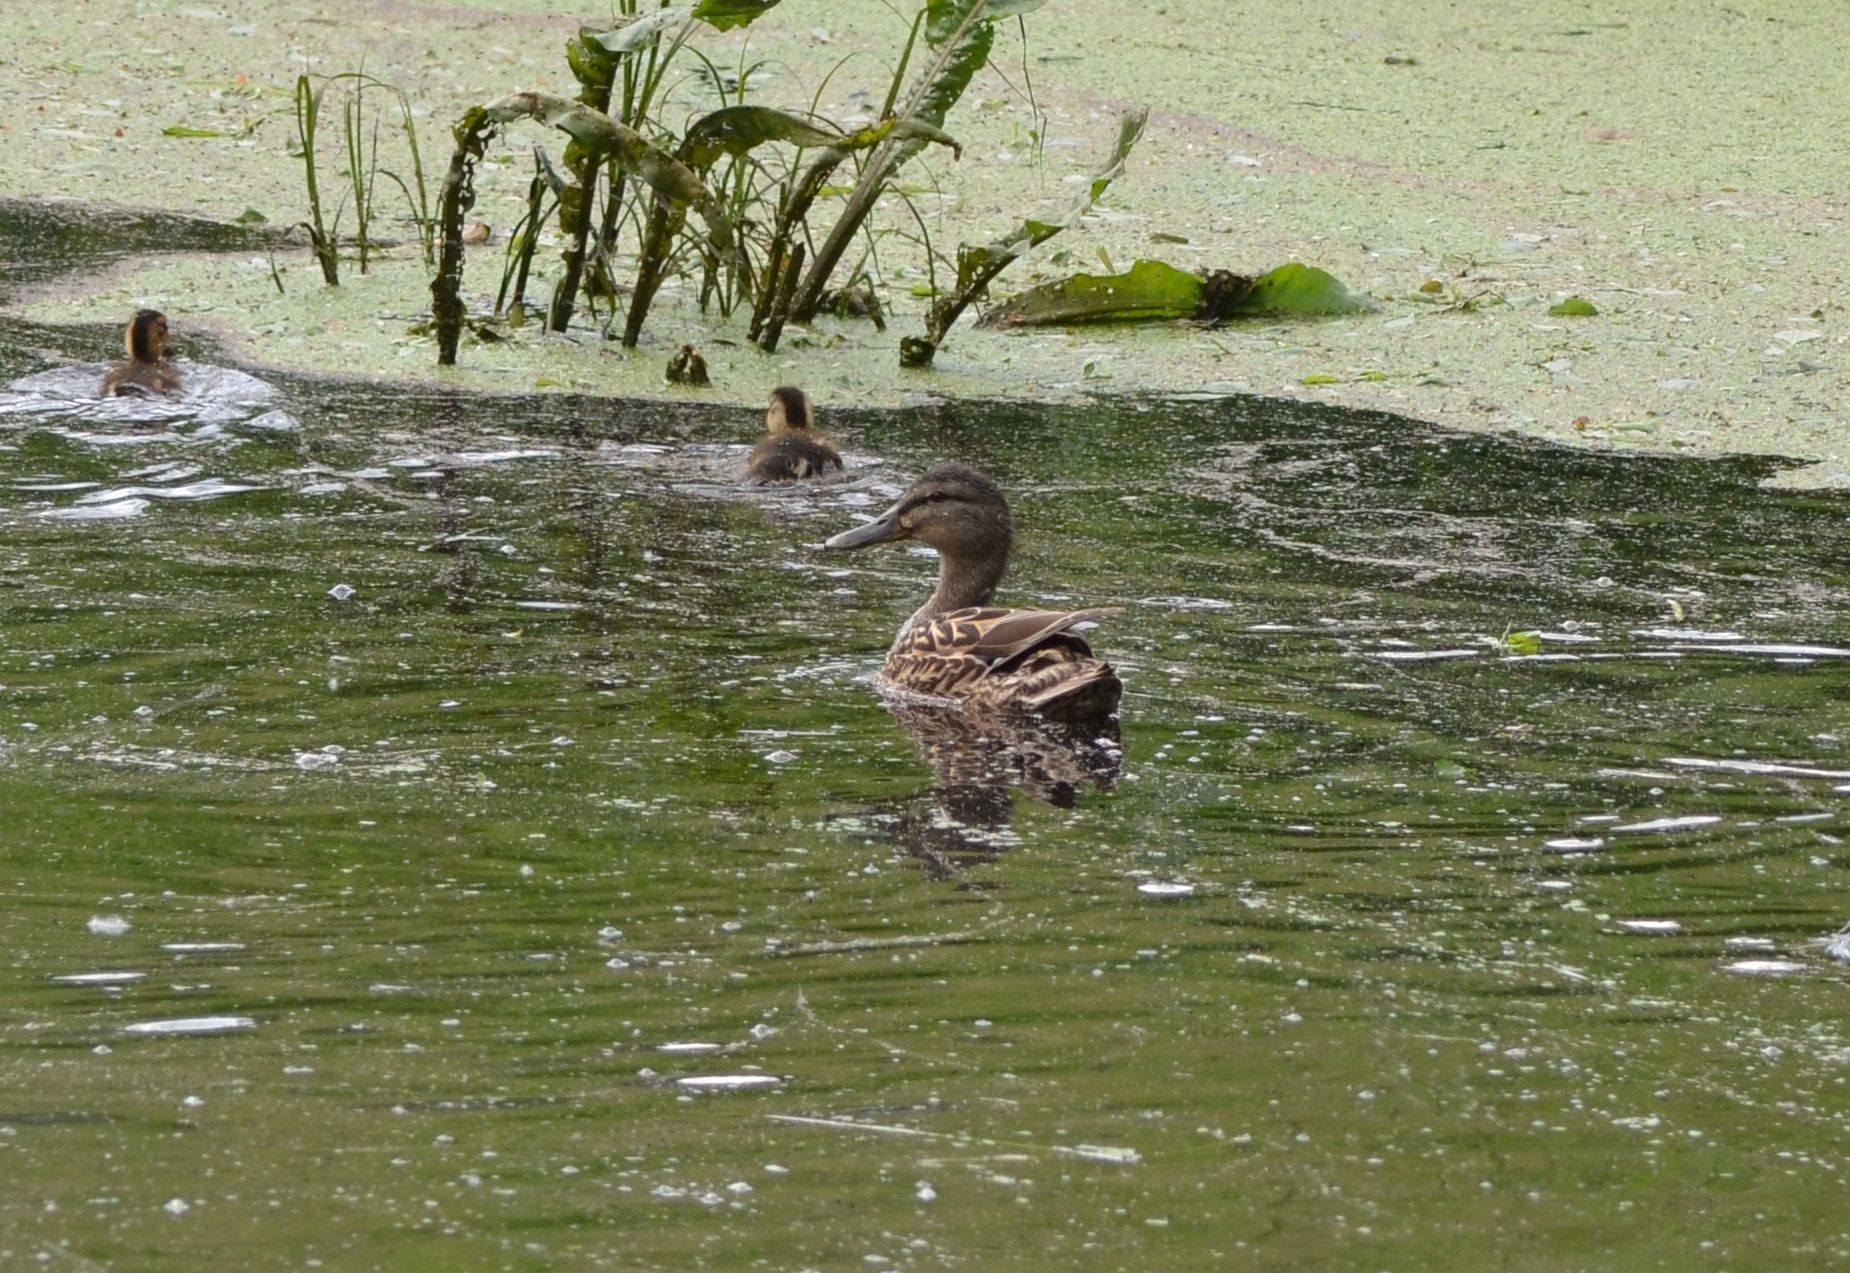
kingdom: Animalia
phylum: Chordata
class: Aves
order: Anseriformes
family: Anatidae
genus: Anas
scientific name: Anas platyrhynchos
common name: Mallard
